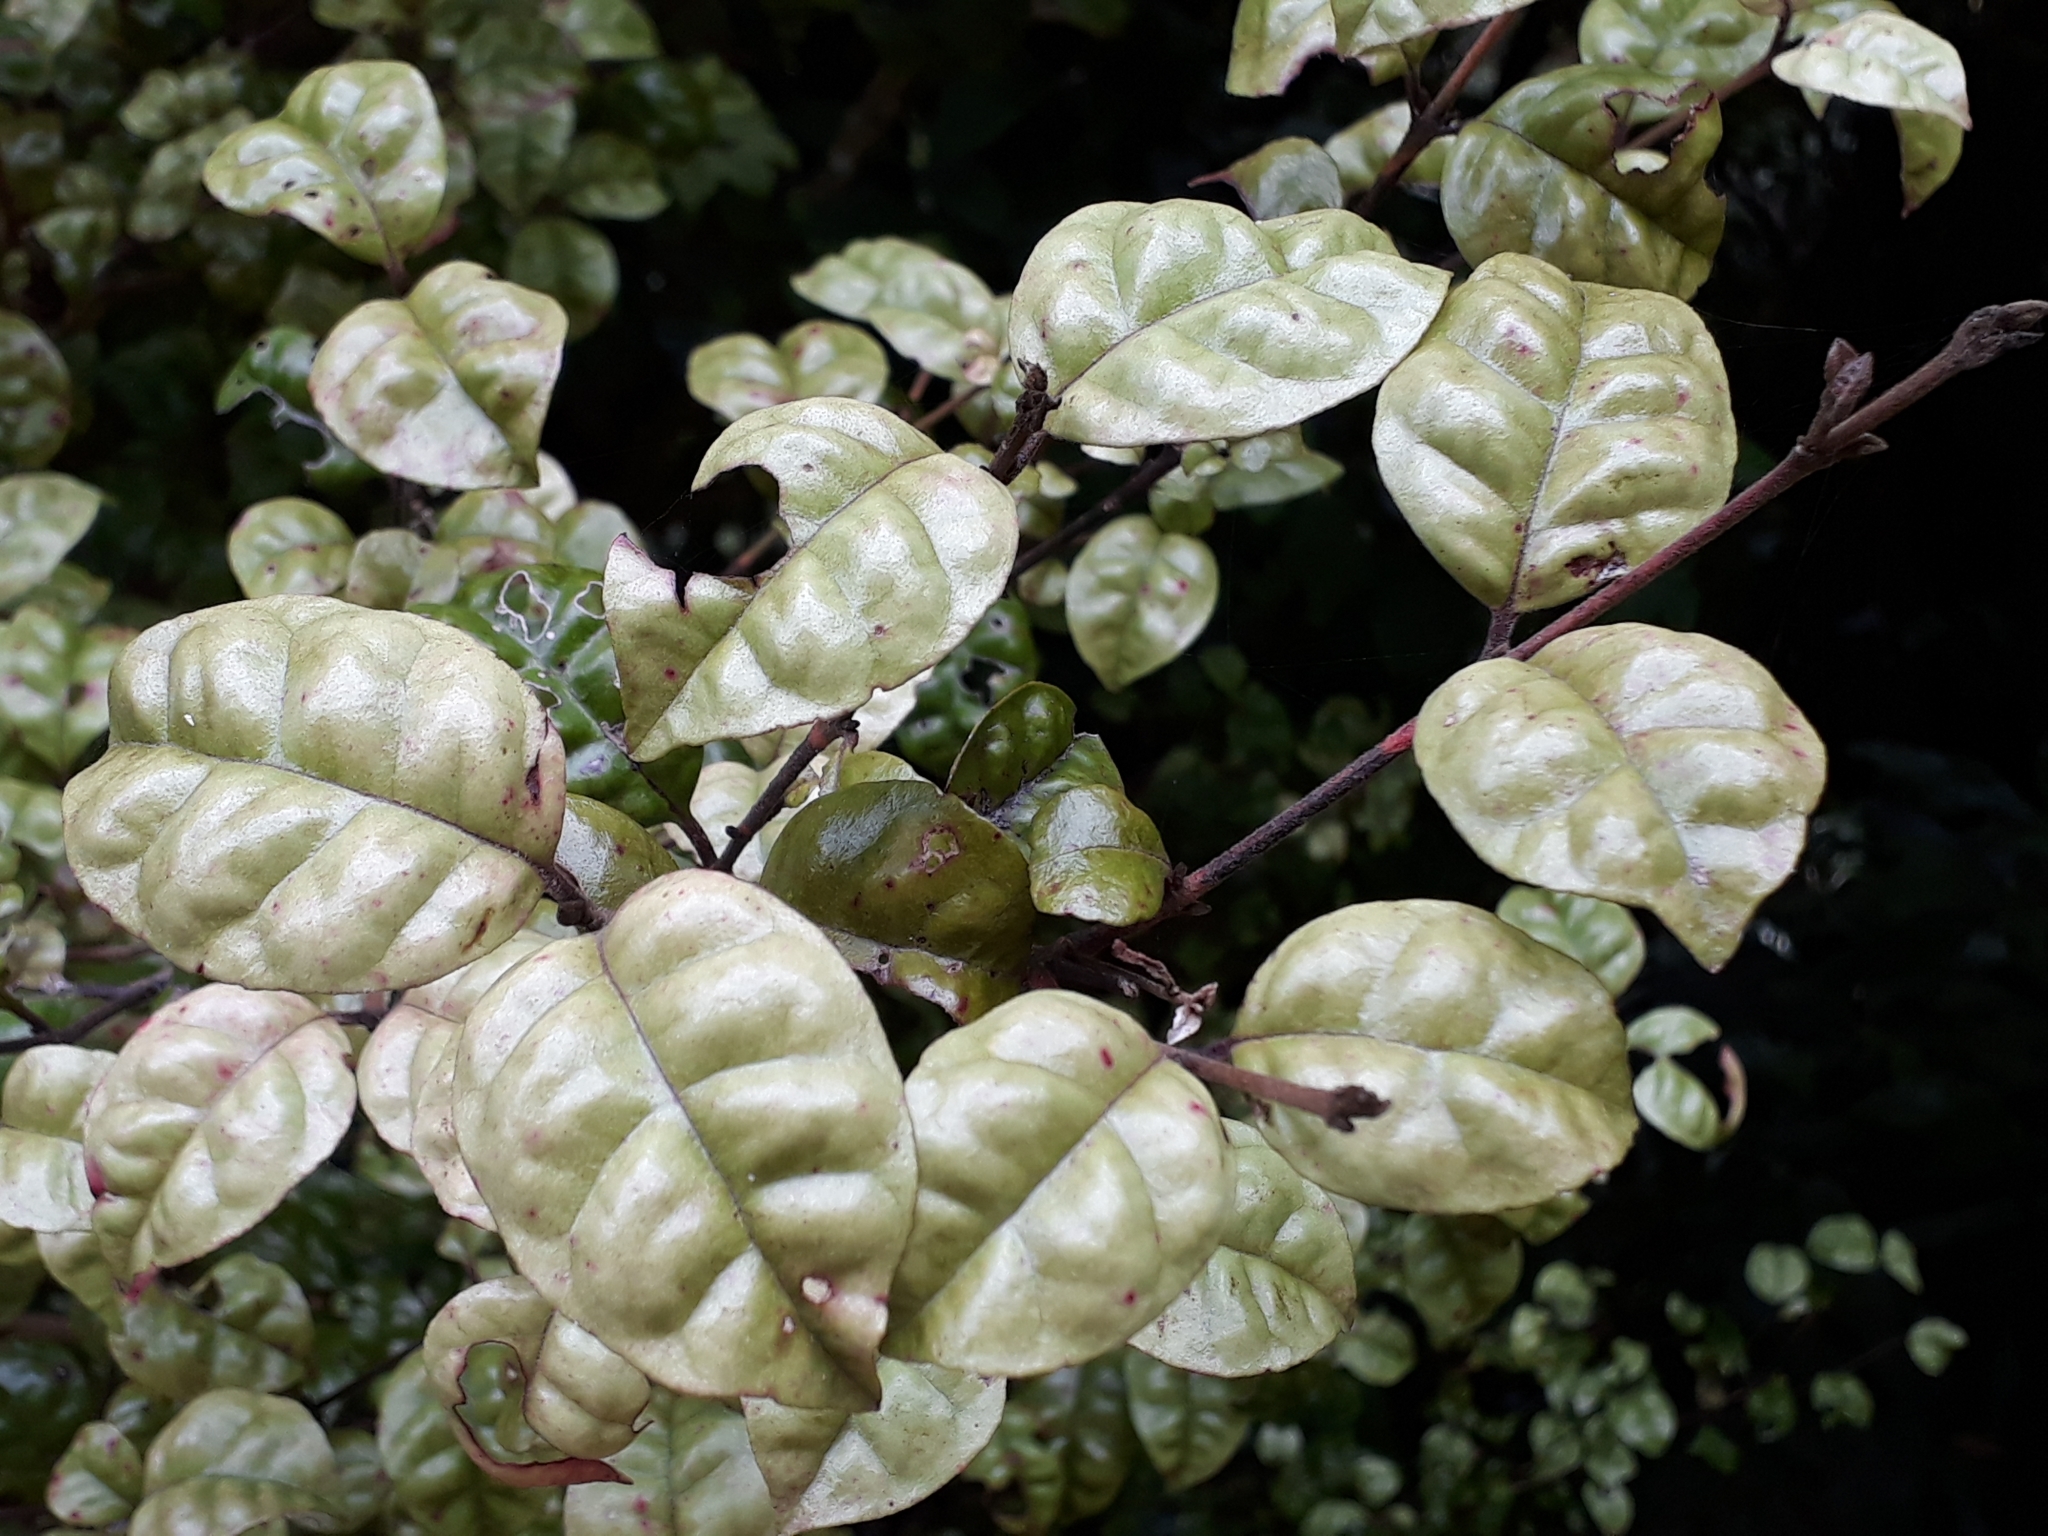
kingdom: Plantae
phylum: Tracheophyta
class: Magnoliopsida
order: Myrtales
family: Myrtaceae
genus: Lophomyrtus
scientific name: Lophomyrtus bullata
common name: Rama rama
